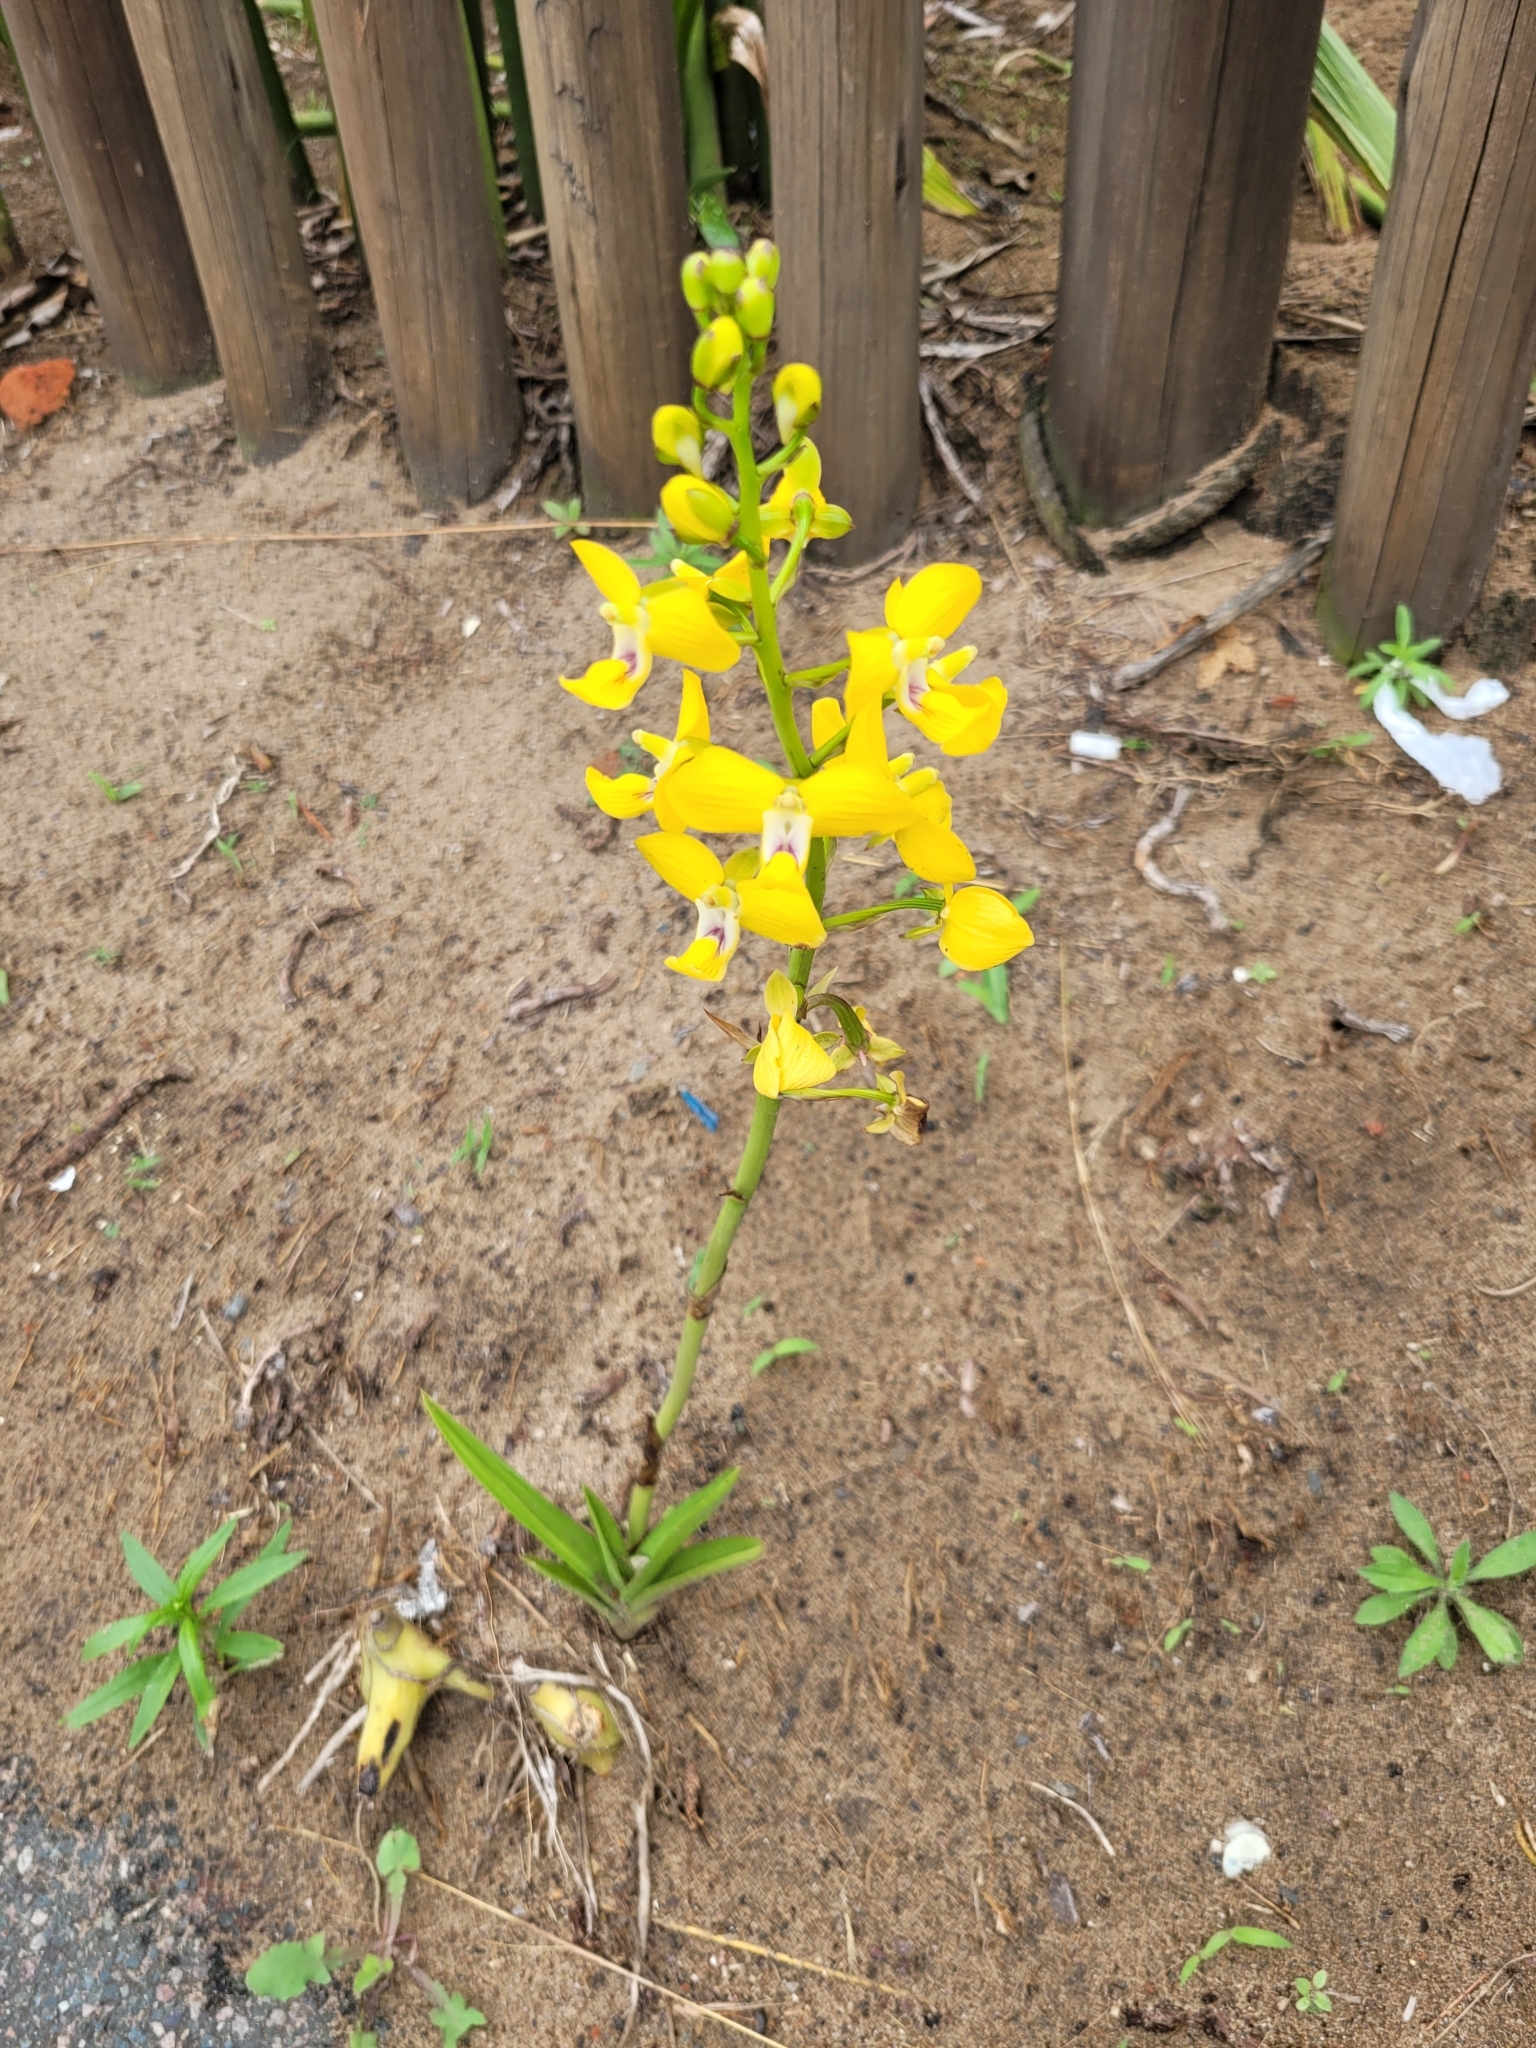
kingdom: Plantae
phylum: Tracheophyta
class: Liliopsida
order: Asparagales
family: Orchidaceae
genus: Eulophia
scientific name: Eulophia speciosa
